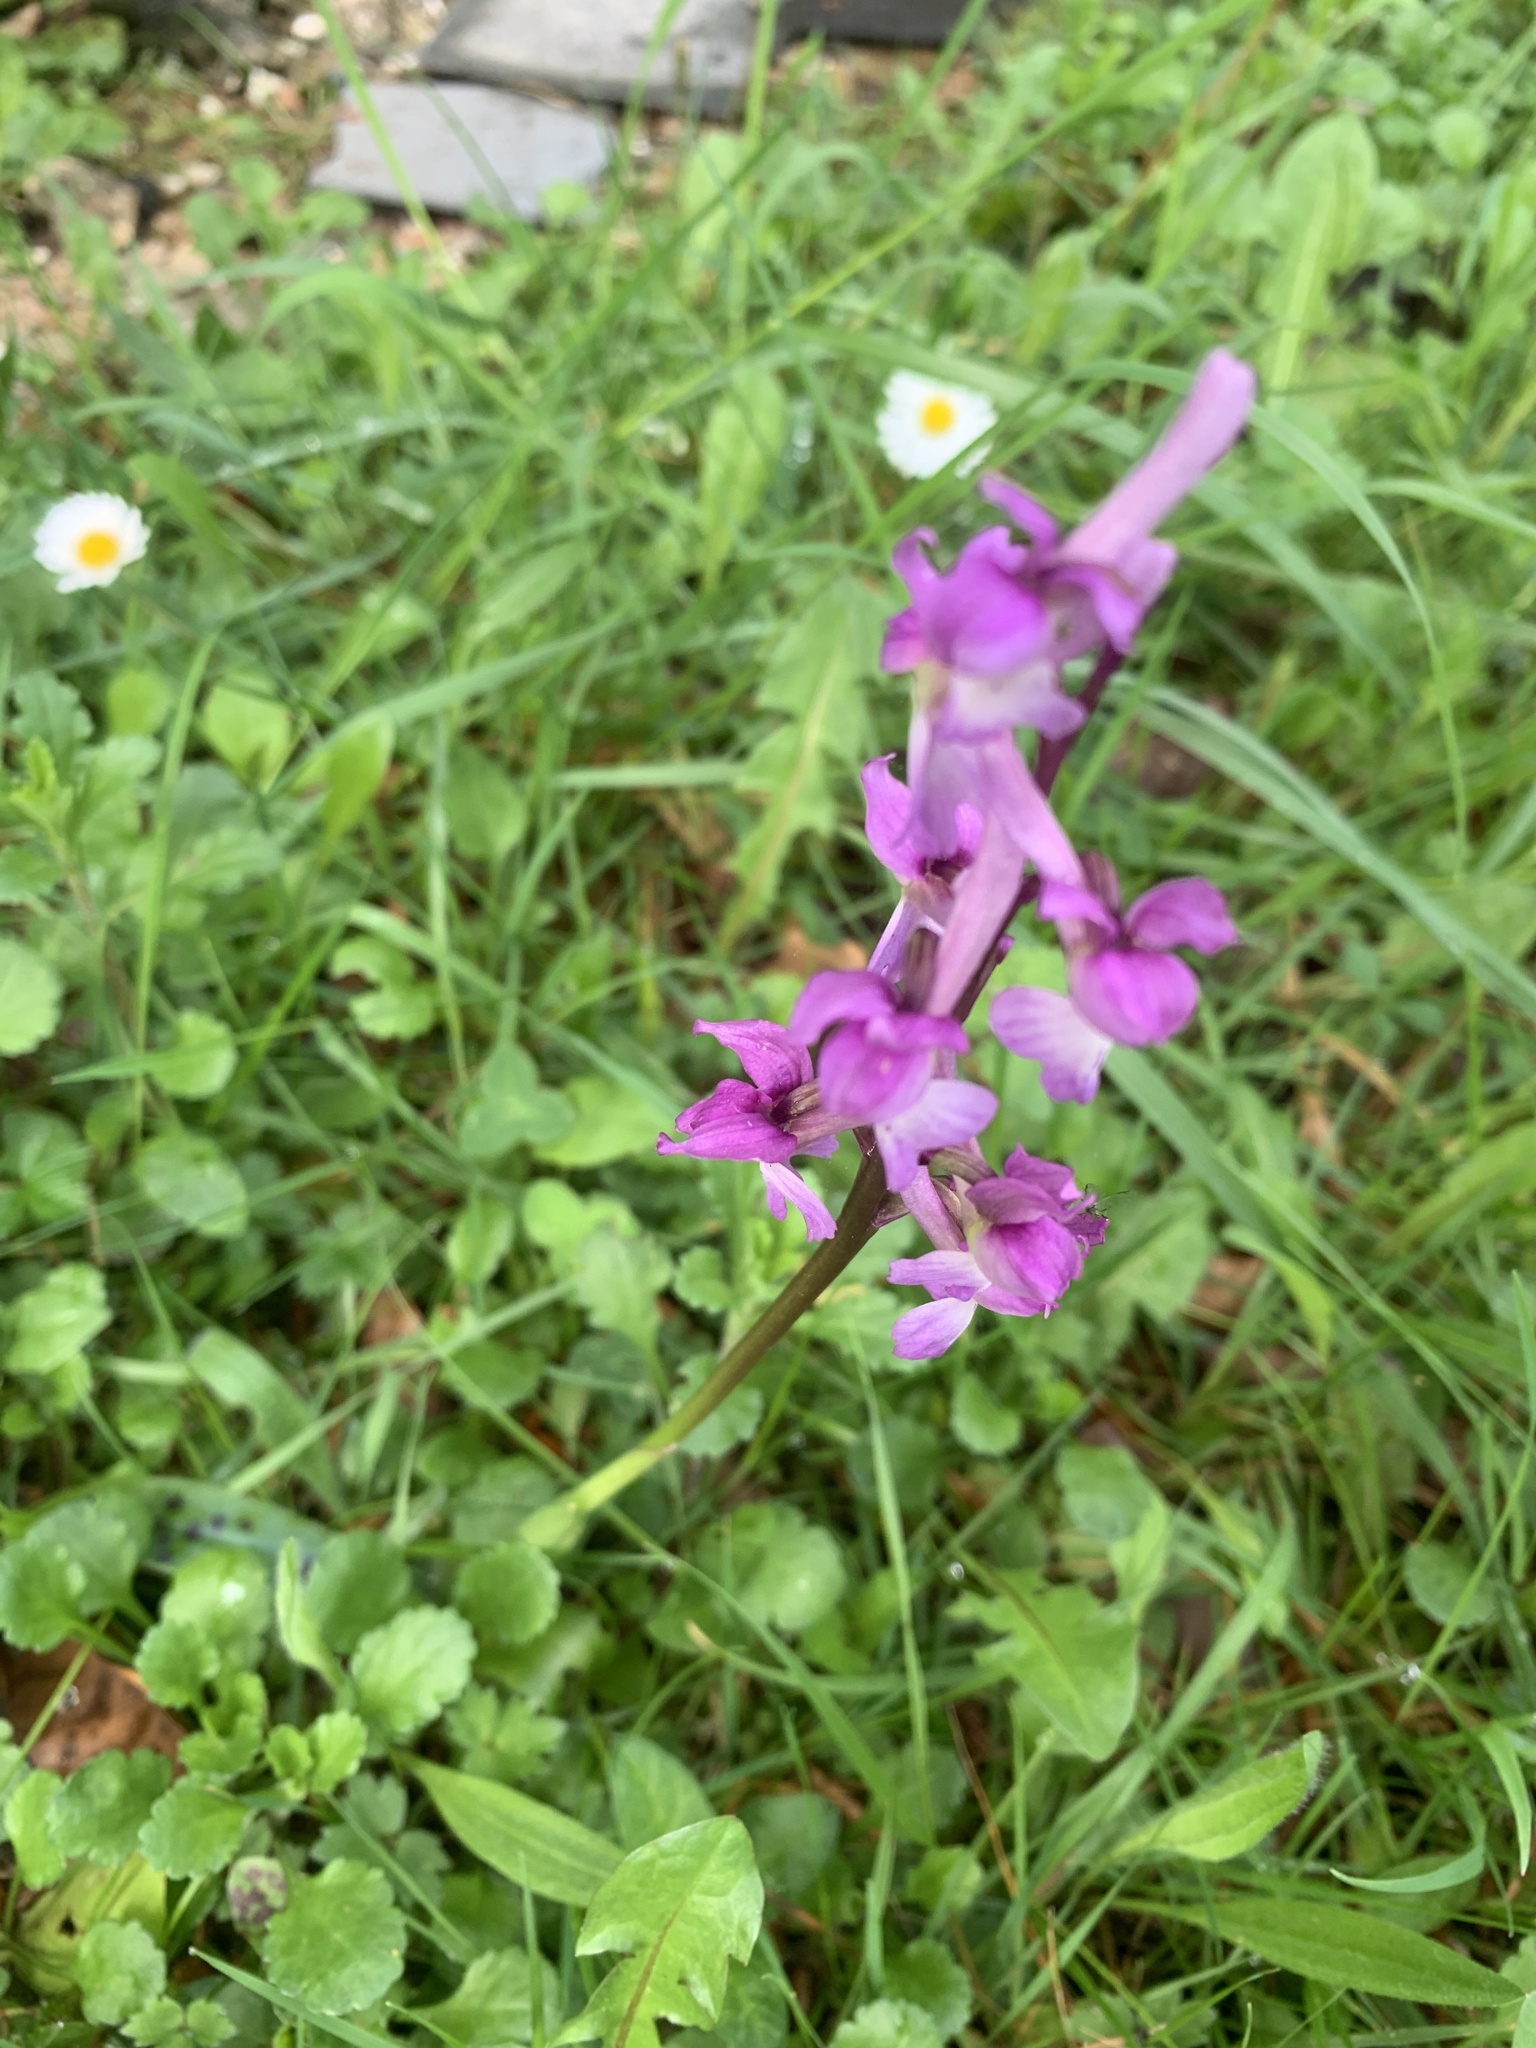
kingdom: Plantae
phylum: Tracheophyta
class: Liliopsida
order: Asparagales
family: Orchidaceae
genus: Orchis
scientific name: Orchis mascula
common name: Early-purple orchid
